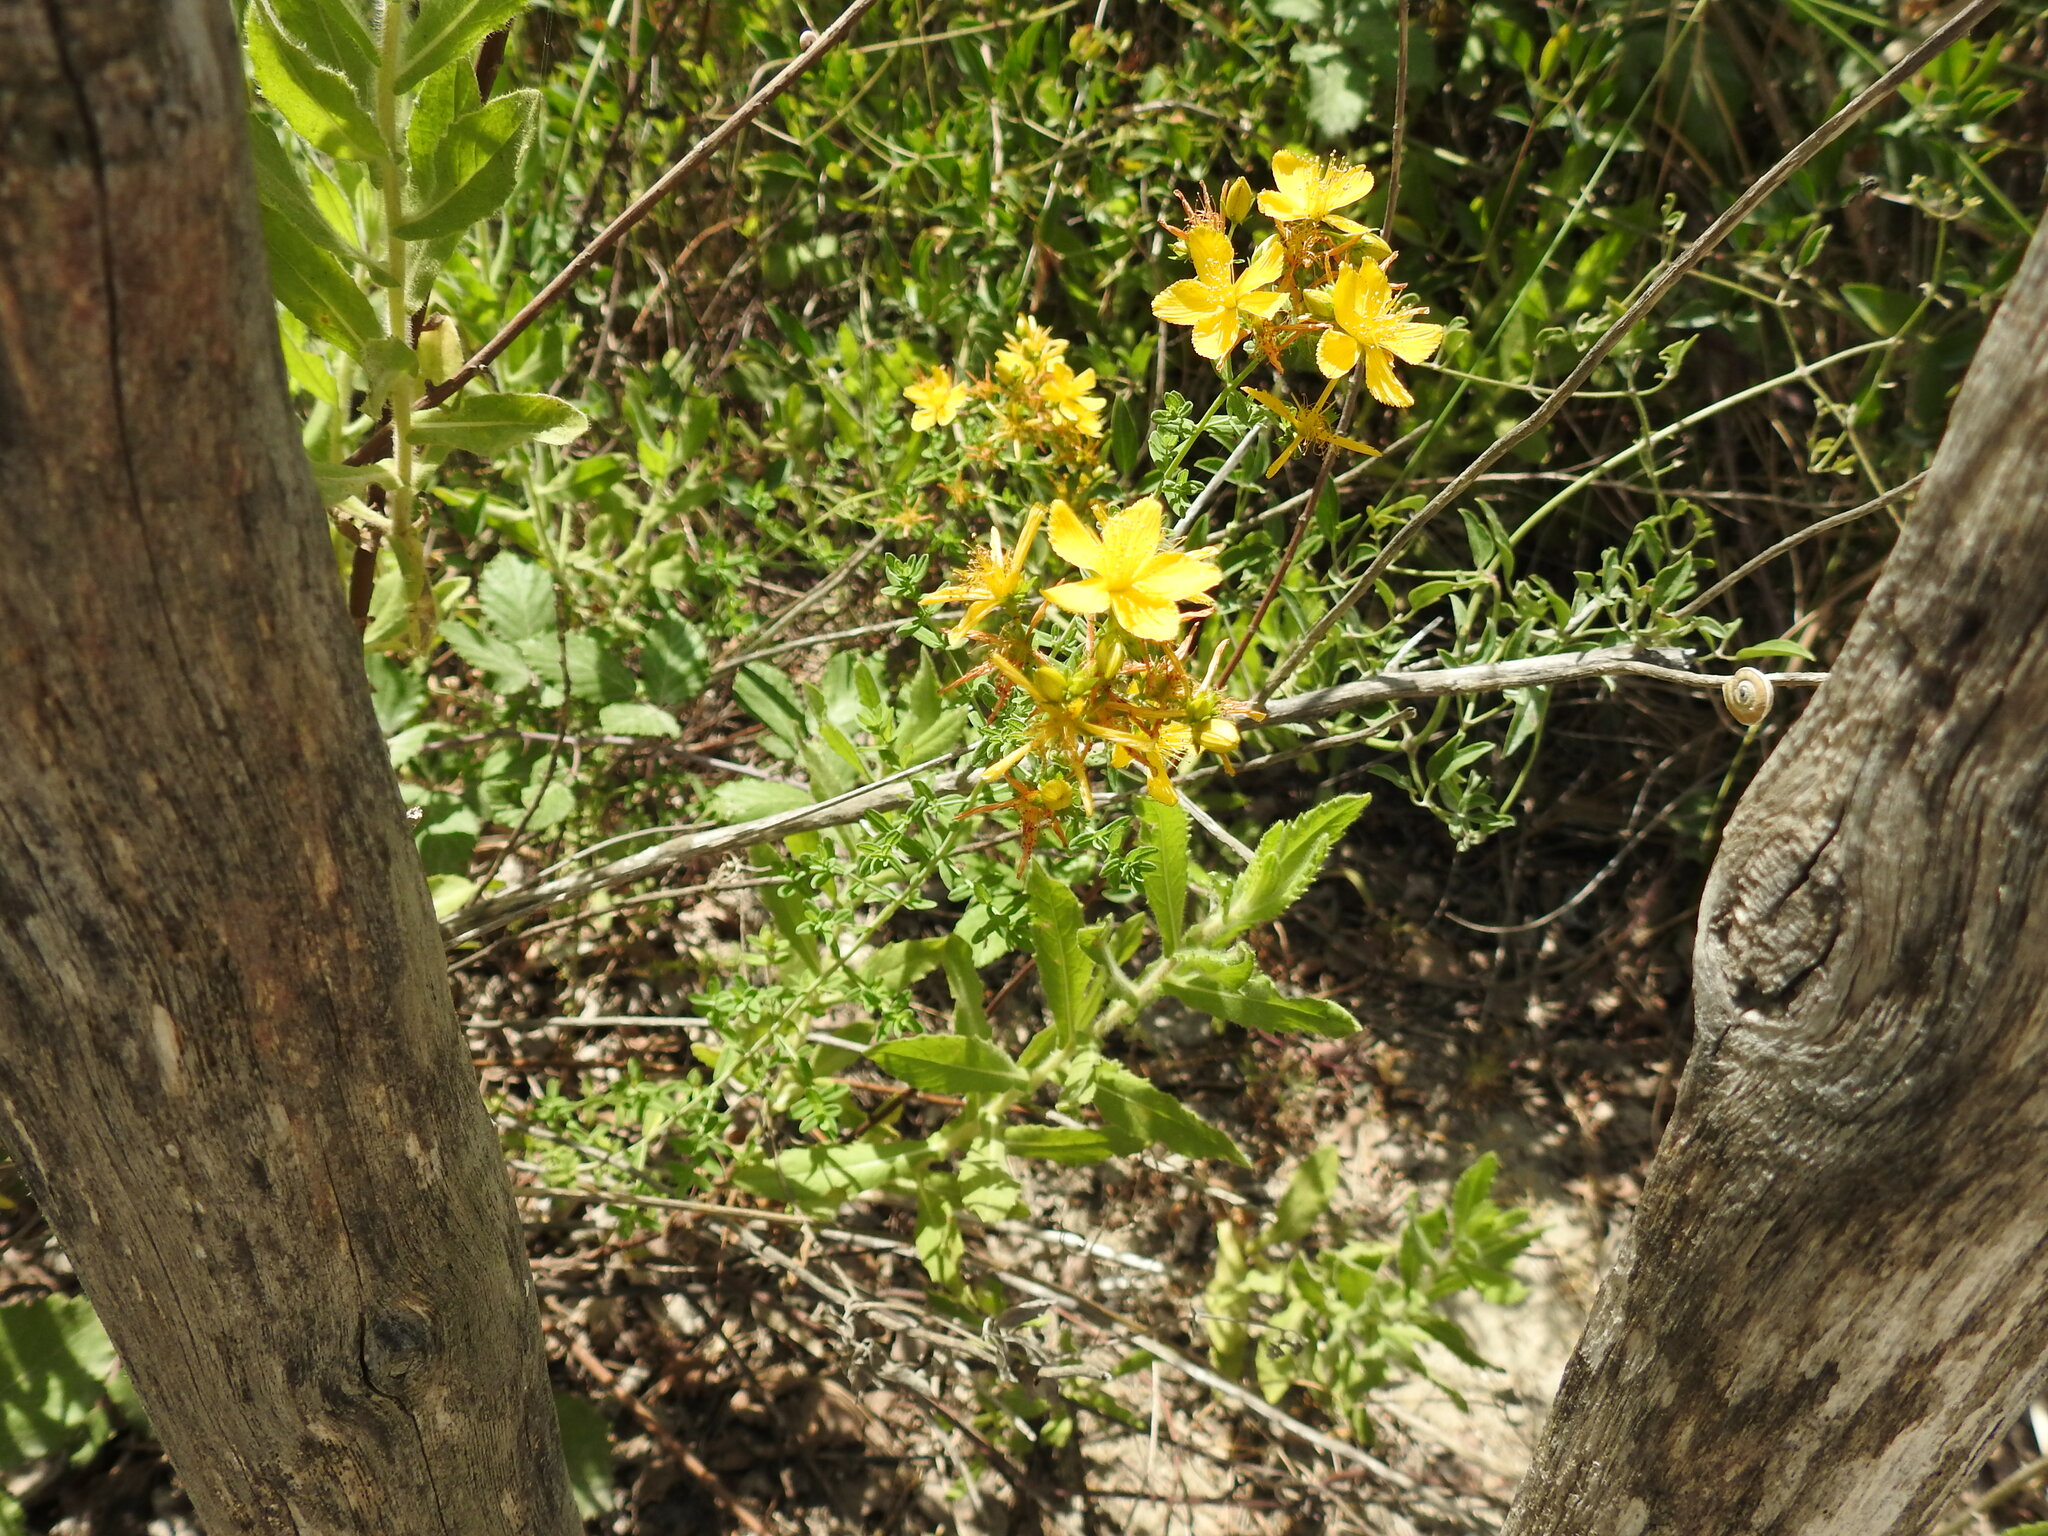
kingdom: Plantae
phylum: Tracheophyta
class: Magnoliopsida
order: Malpighiales
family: Hypericaceae
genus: Hypericum
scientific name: Hypericum perforatum
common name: Common st. johnswort
